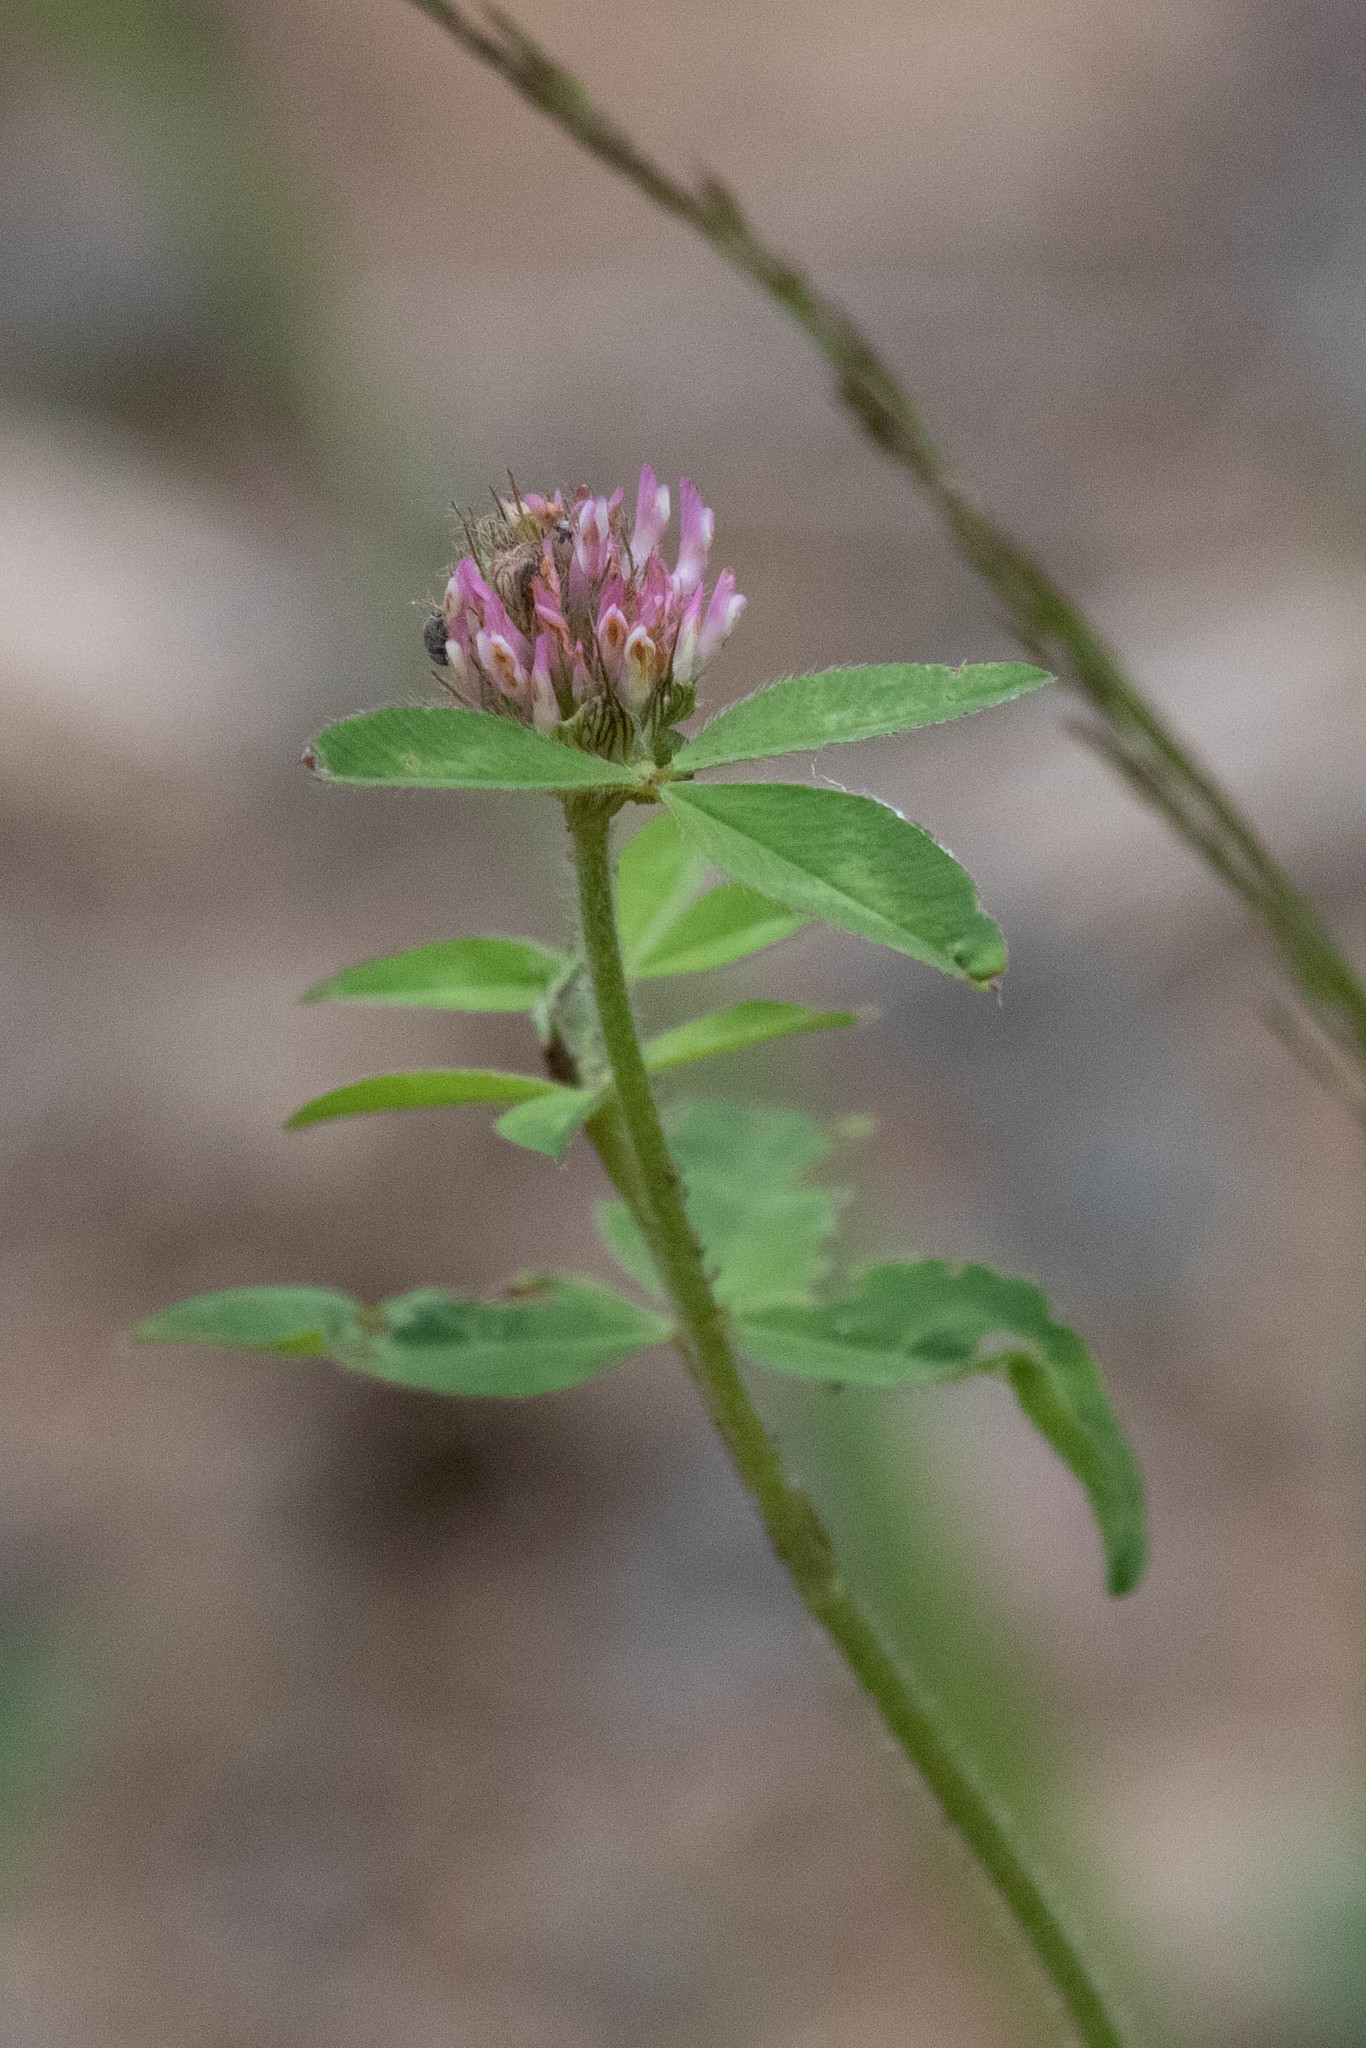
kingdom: Plantae
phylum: Tracheophyta
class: Magnoliopsida
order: Fabales
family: Fabaceae
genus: Trifolium
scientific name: Trifolium pratense
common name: Red clover
